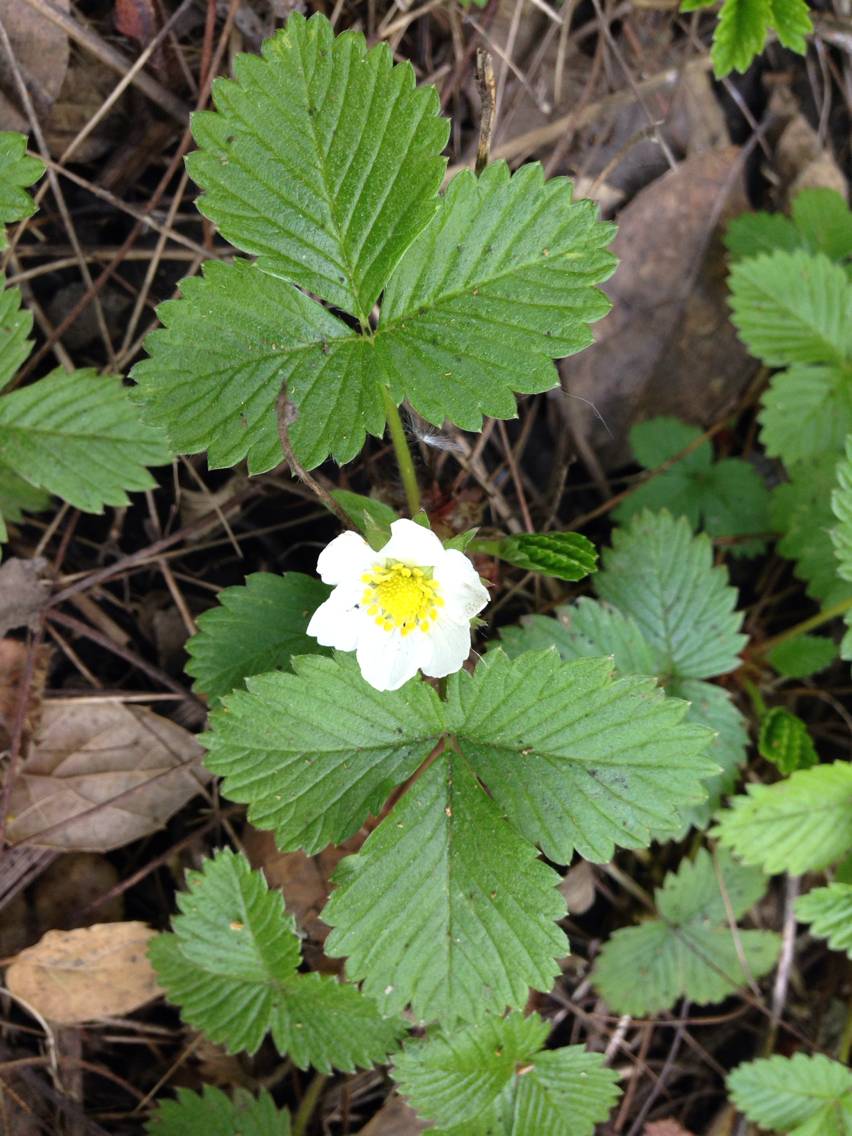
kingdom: Plantae
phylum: Tracheophyta
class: Magnoliopsida
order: Rosales
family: Rosaceae
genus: Fragaria
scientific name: Fragaria vesca
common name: Wild strawberry
